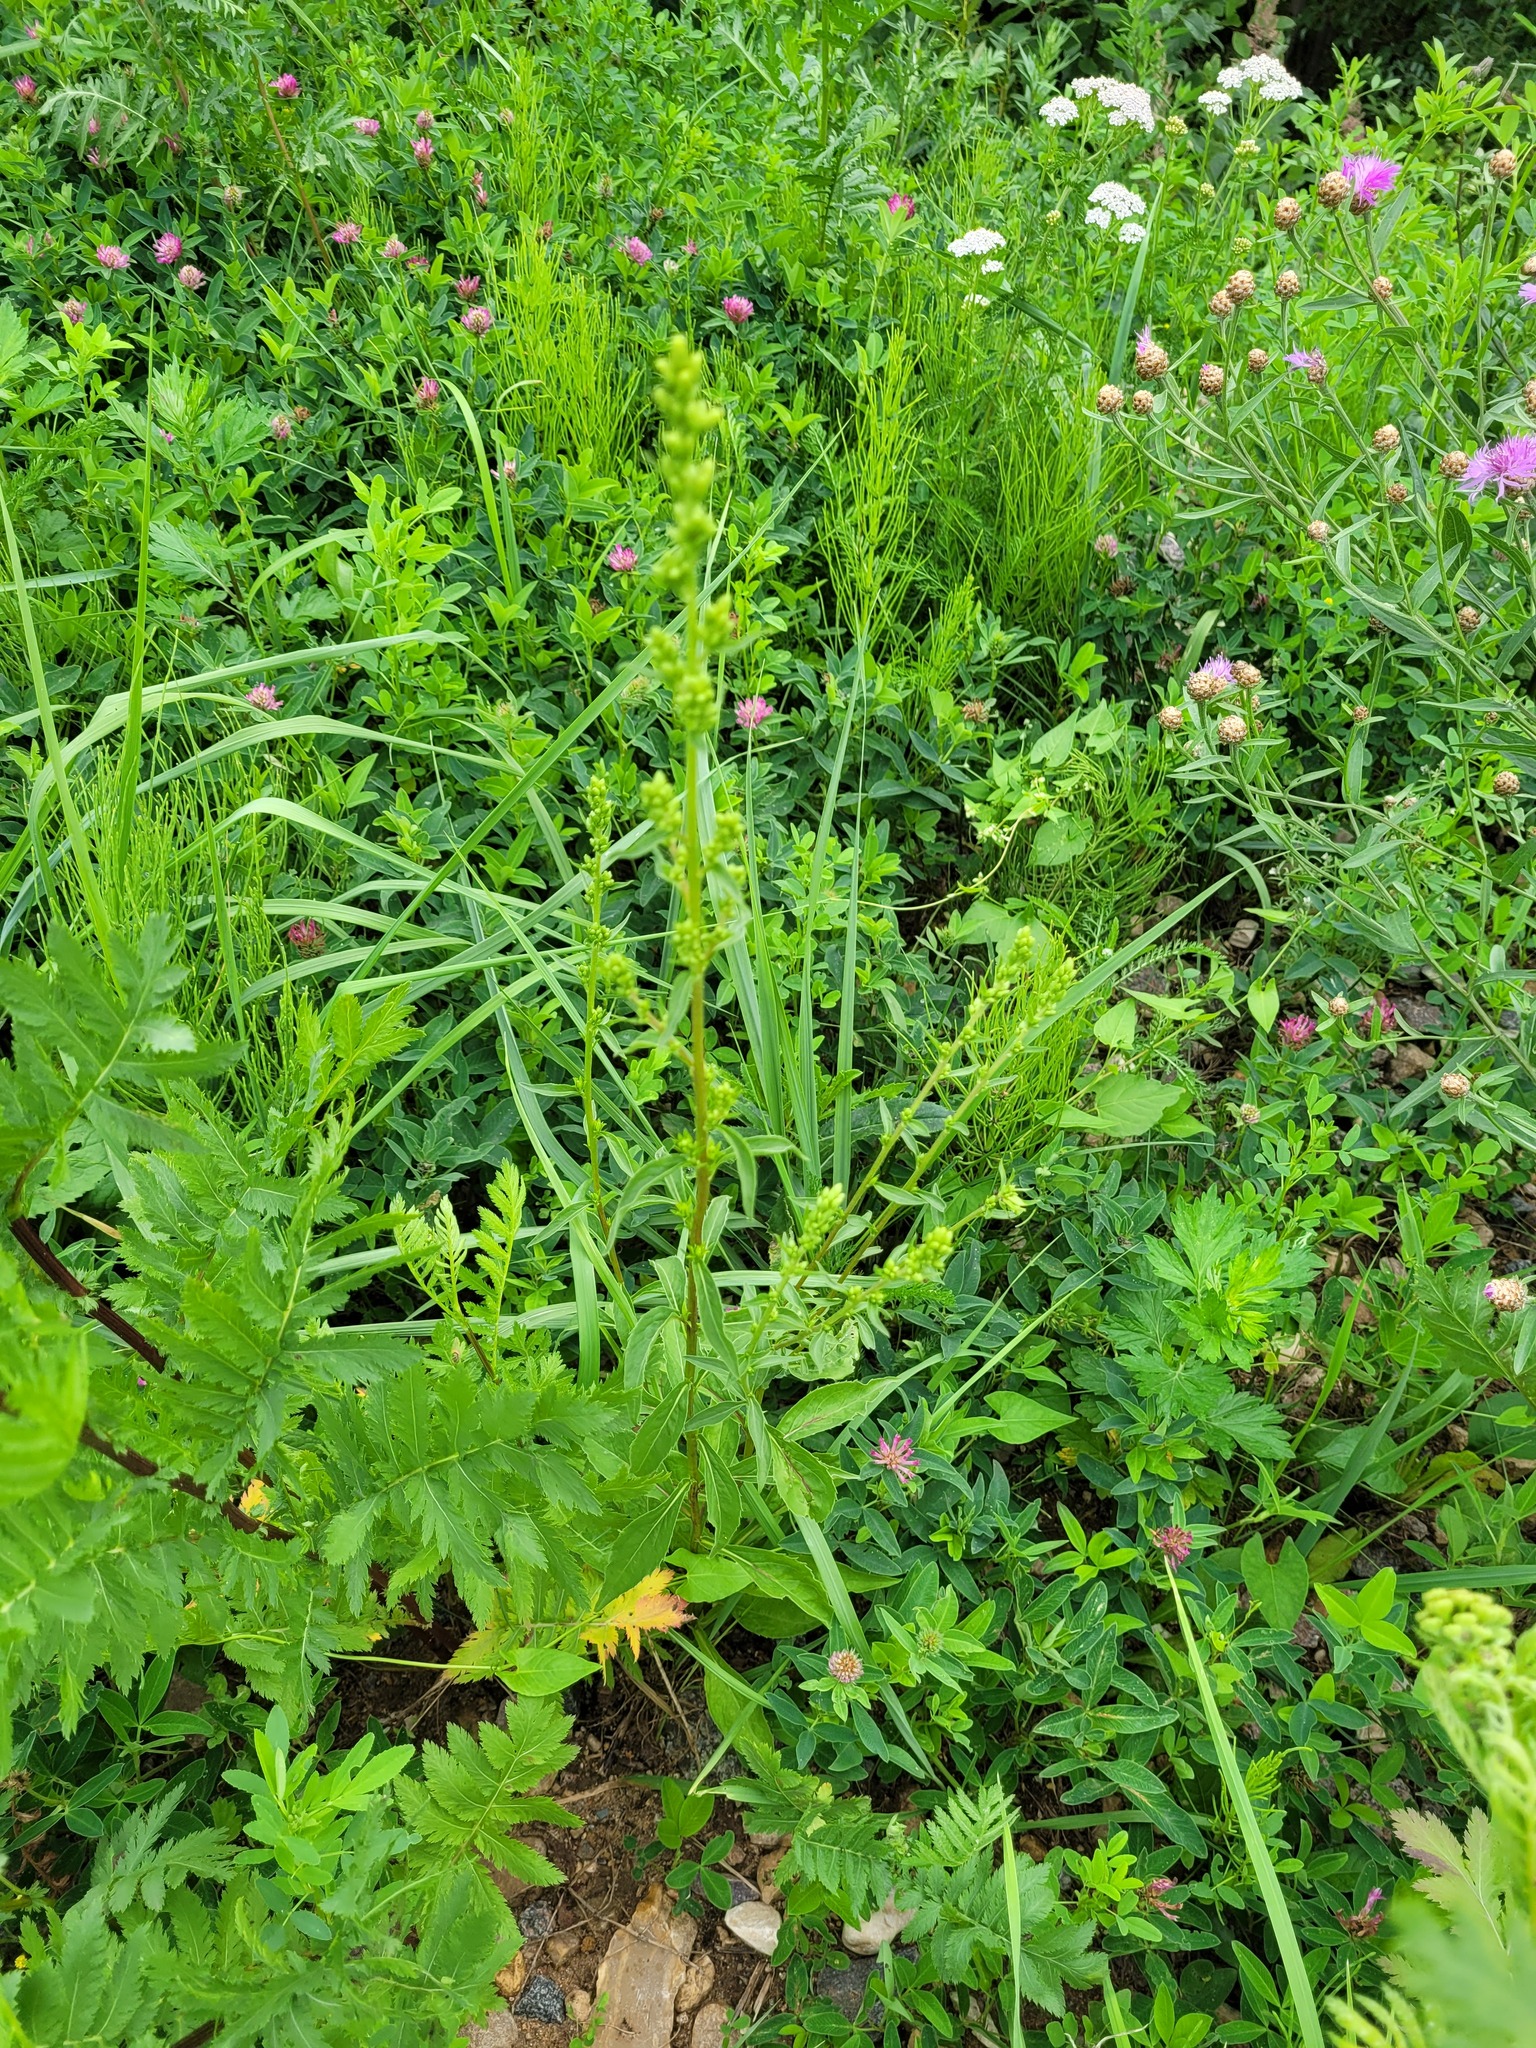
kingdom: Plantae
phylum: Tracheophyta
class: Magnoliopsida
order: Asterales
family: Asteraceae
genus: Solidago
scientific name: Solidago virgaurea
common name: Goldenrod
